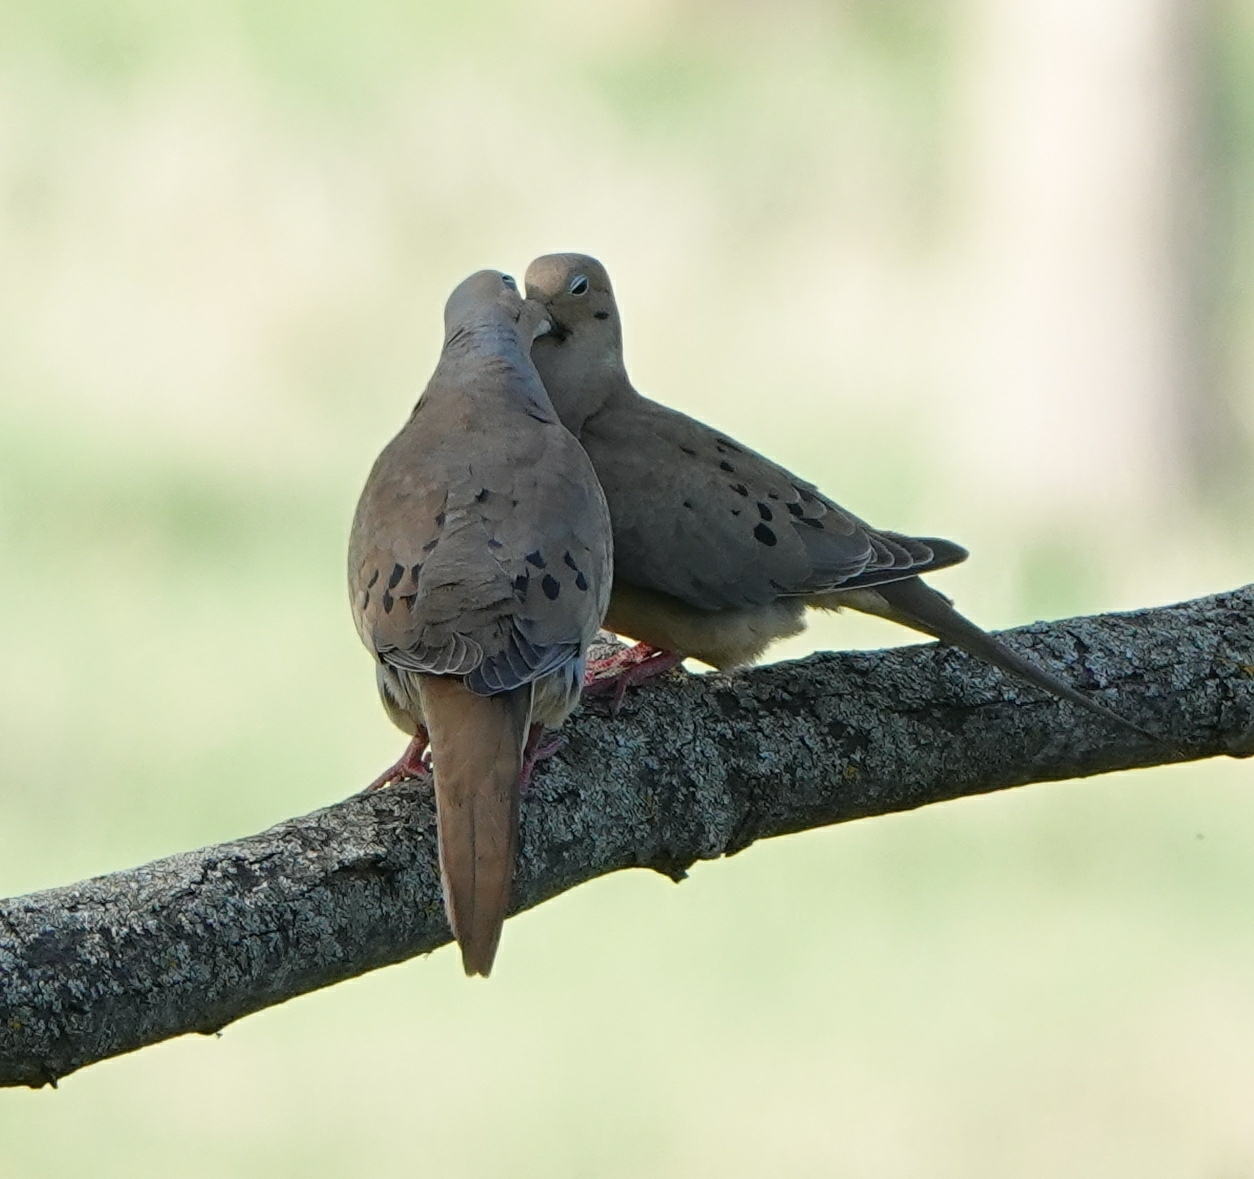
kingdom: Animalia
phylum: Chordata
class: Aves
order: Columbiformes
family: Columbidae
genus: Zenaida
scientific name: Zenaida macroura
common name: Mourning dove
